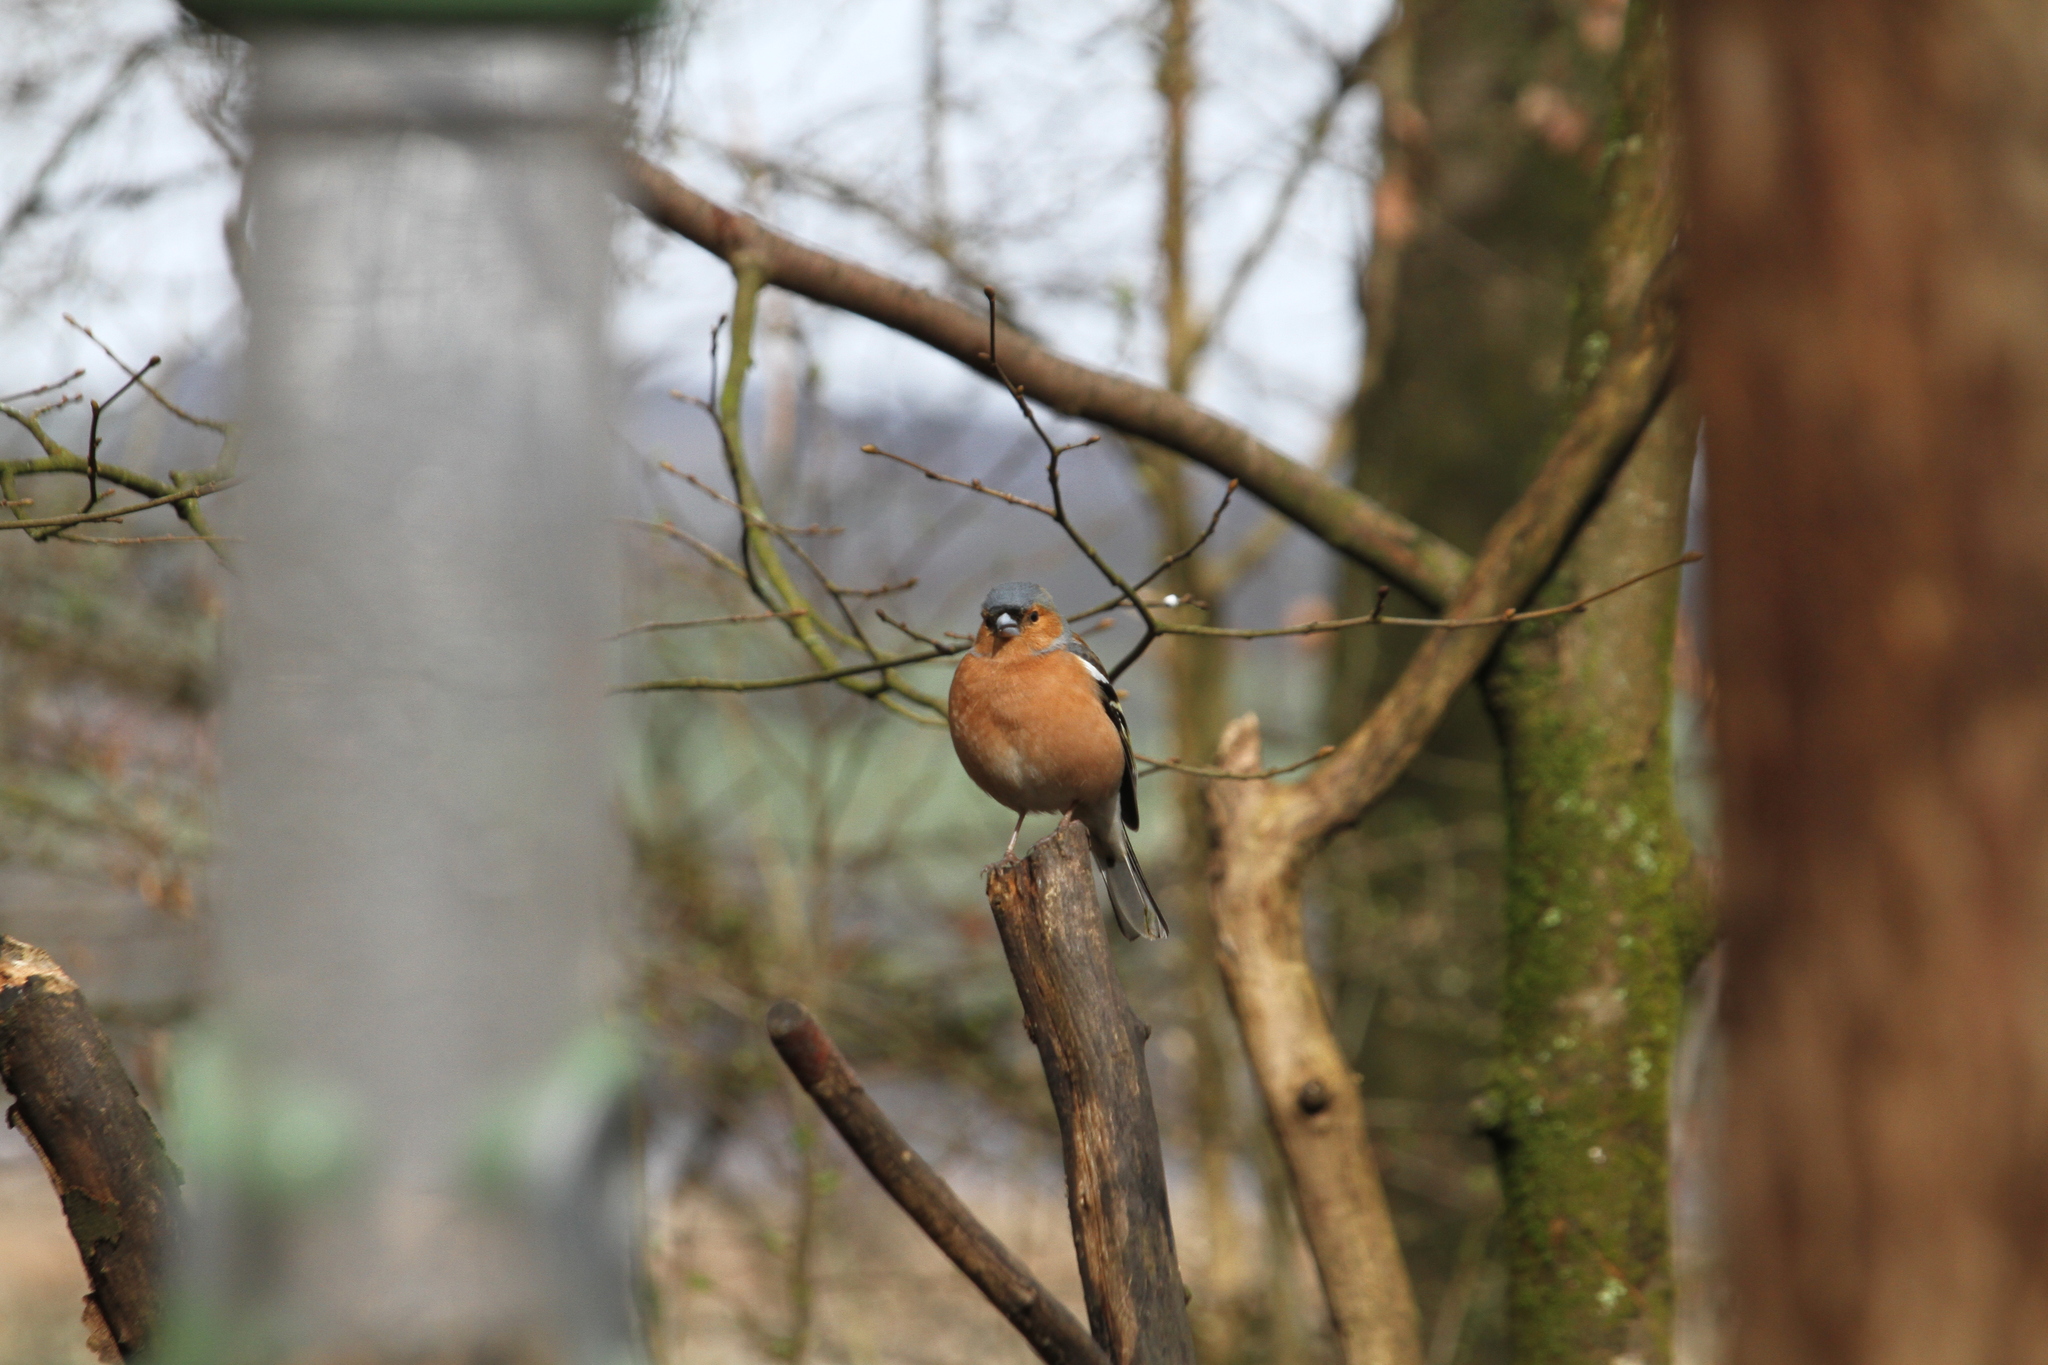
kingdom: Animalia
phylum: Chordata
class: Aves
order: Passeriformes
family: Fringillidae
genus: Fringilla
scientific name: Fringilla coelebs
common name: Common chaffinch
